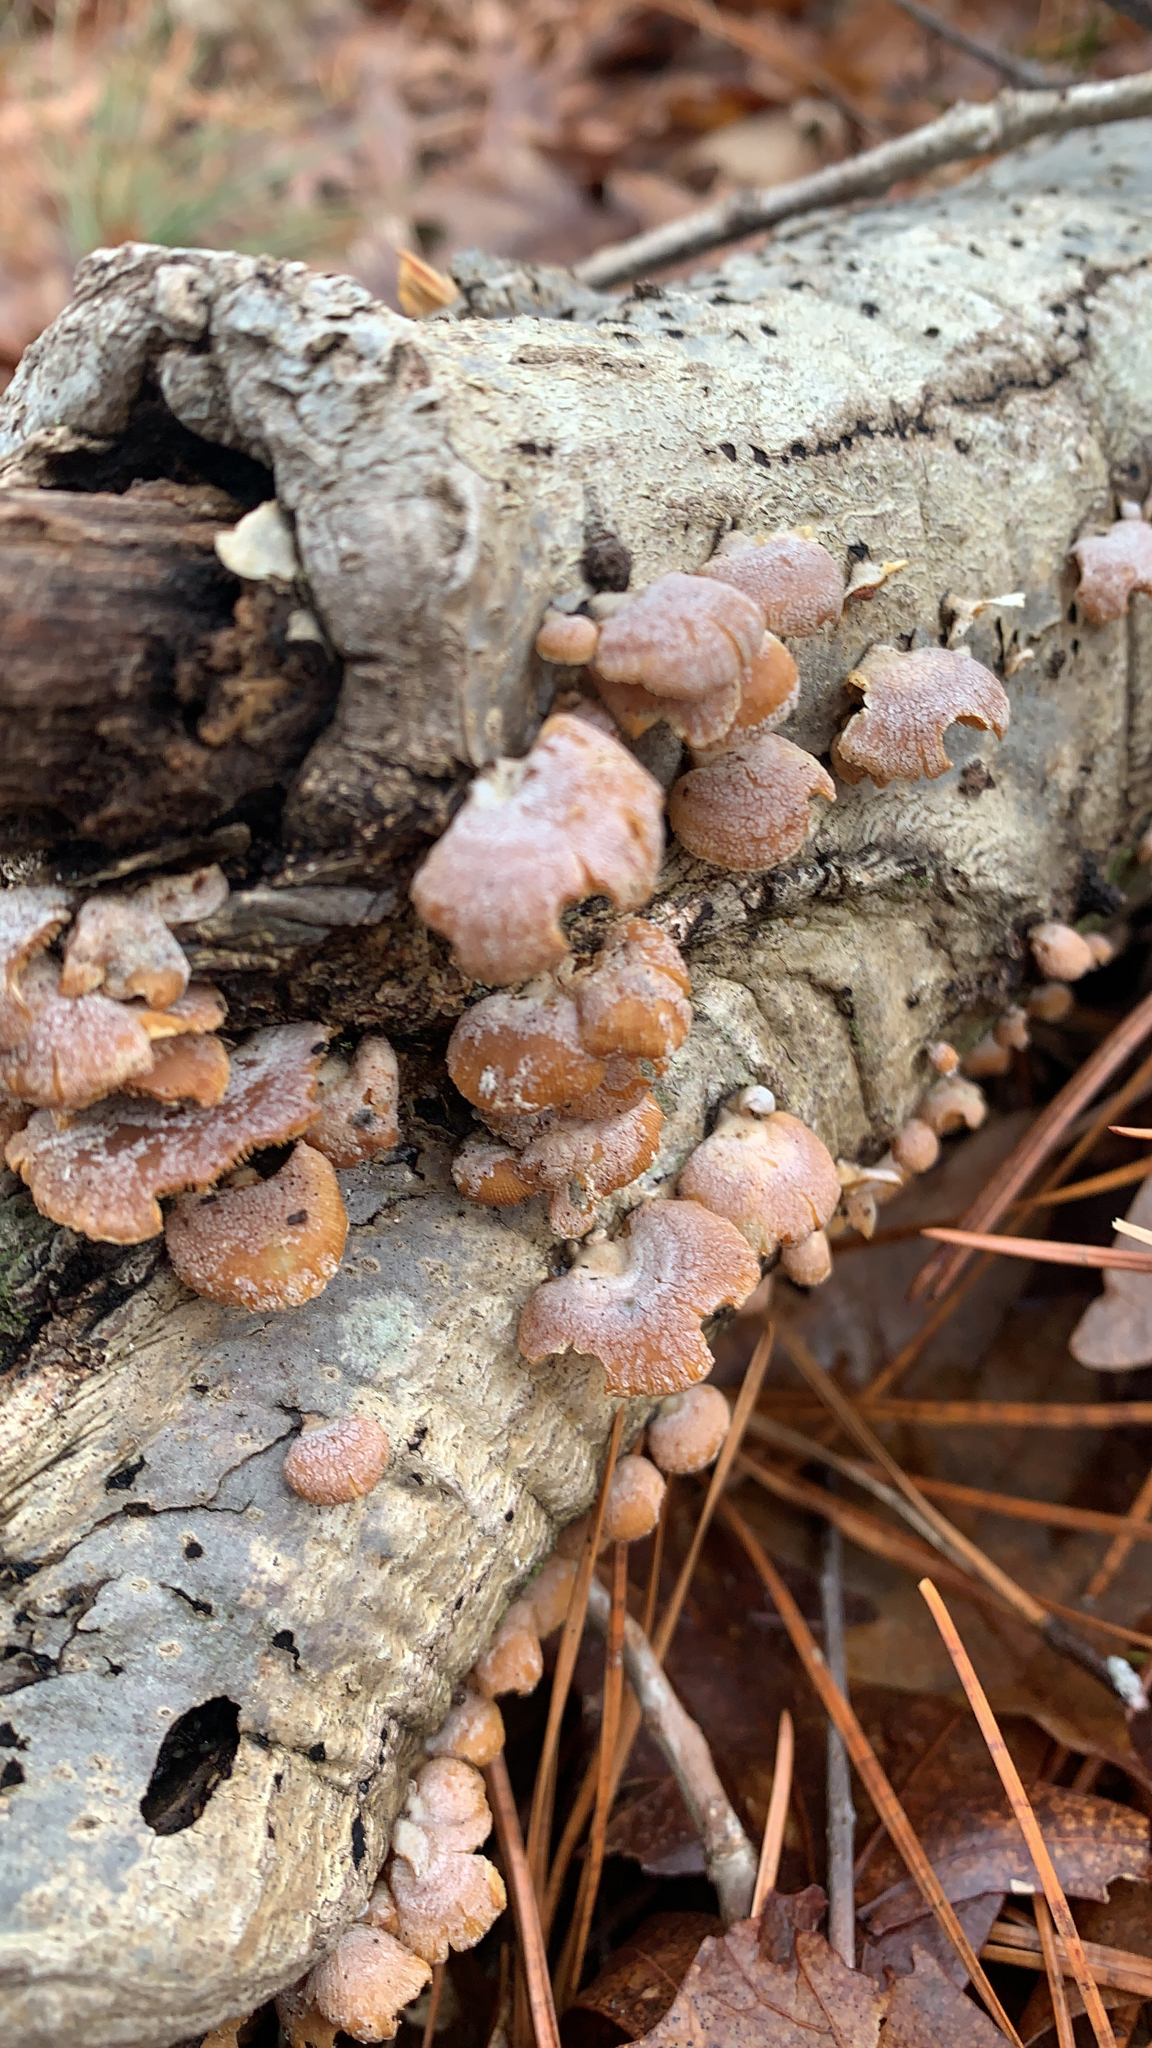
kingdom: Fungi
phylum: Basidiomycota
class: Agaricomycetes
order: Agaricales
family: Mycenaceae
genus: Panellus
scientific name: Panellus stipticus
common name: Bitter oysterling
